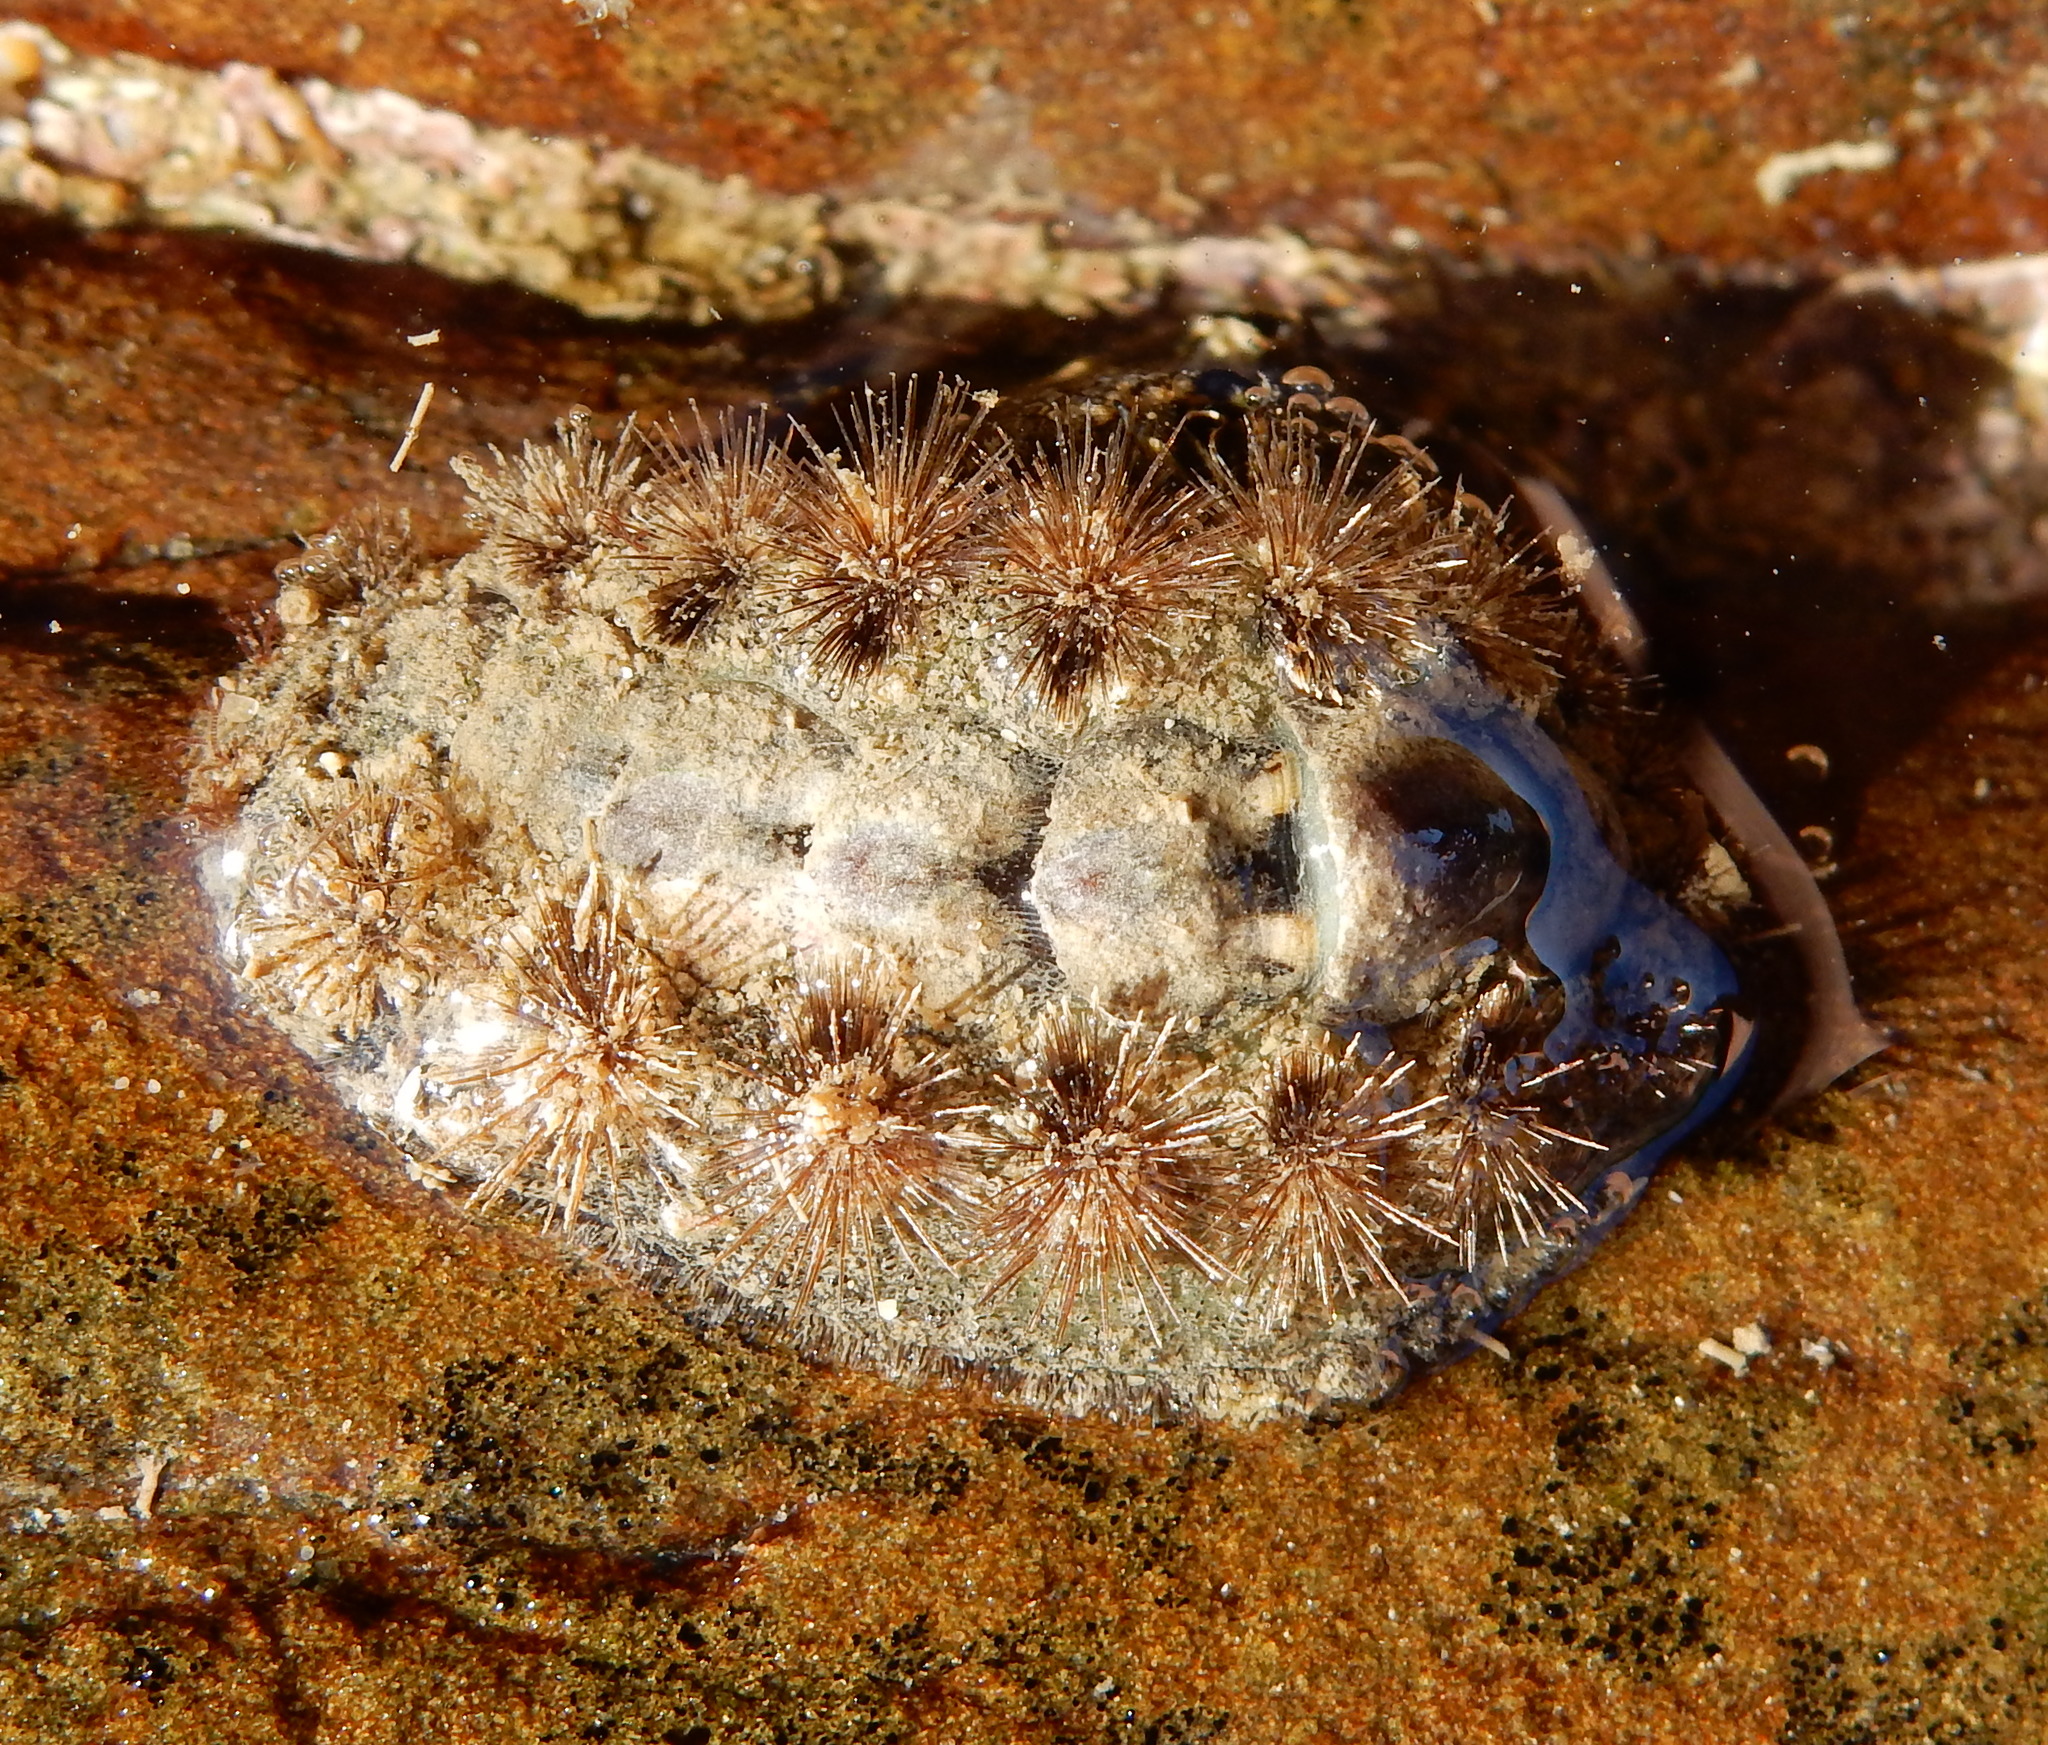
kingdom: Animalia
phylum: Mollusca
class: Polyplacophora
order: Chitonida
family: Acanthochitonidae
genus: Acanthochitona
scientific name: Acanthochitona garnoti
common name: Spiny chiton
